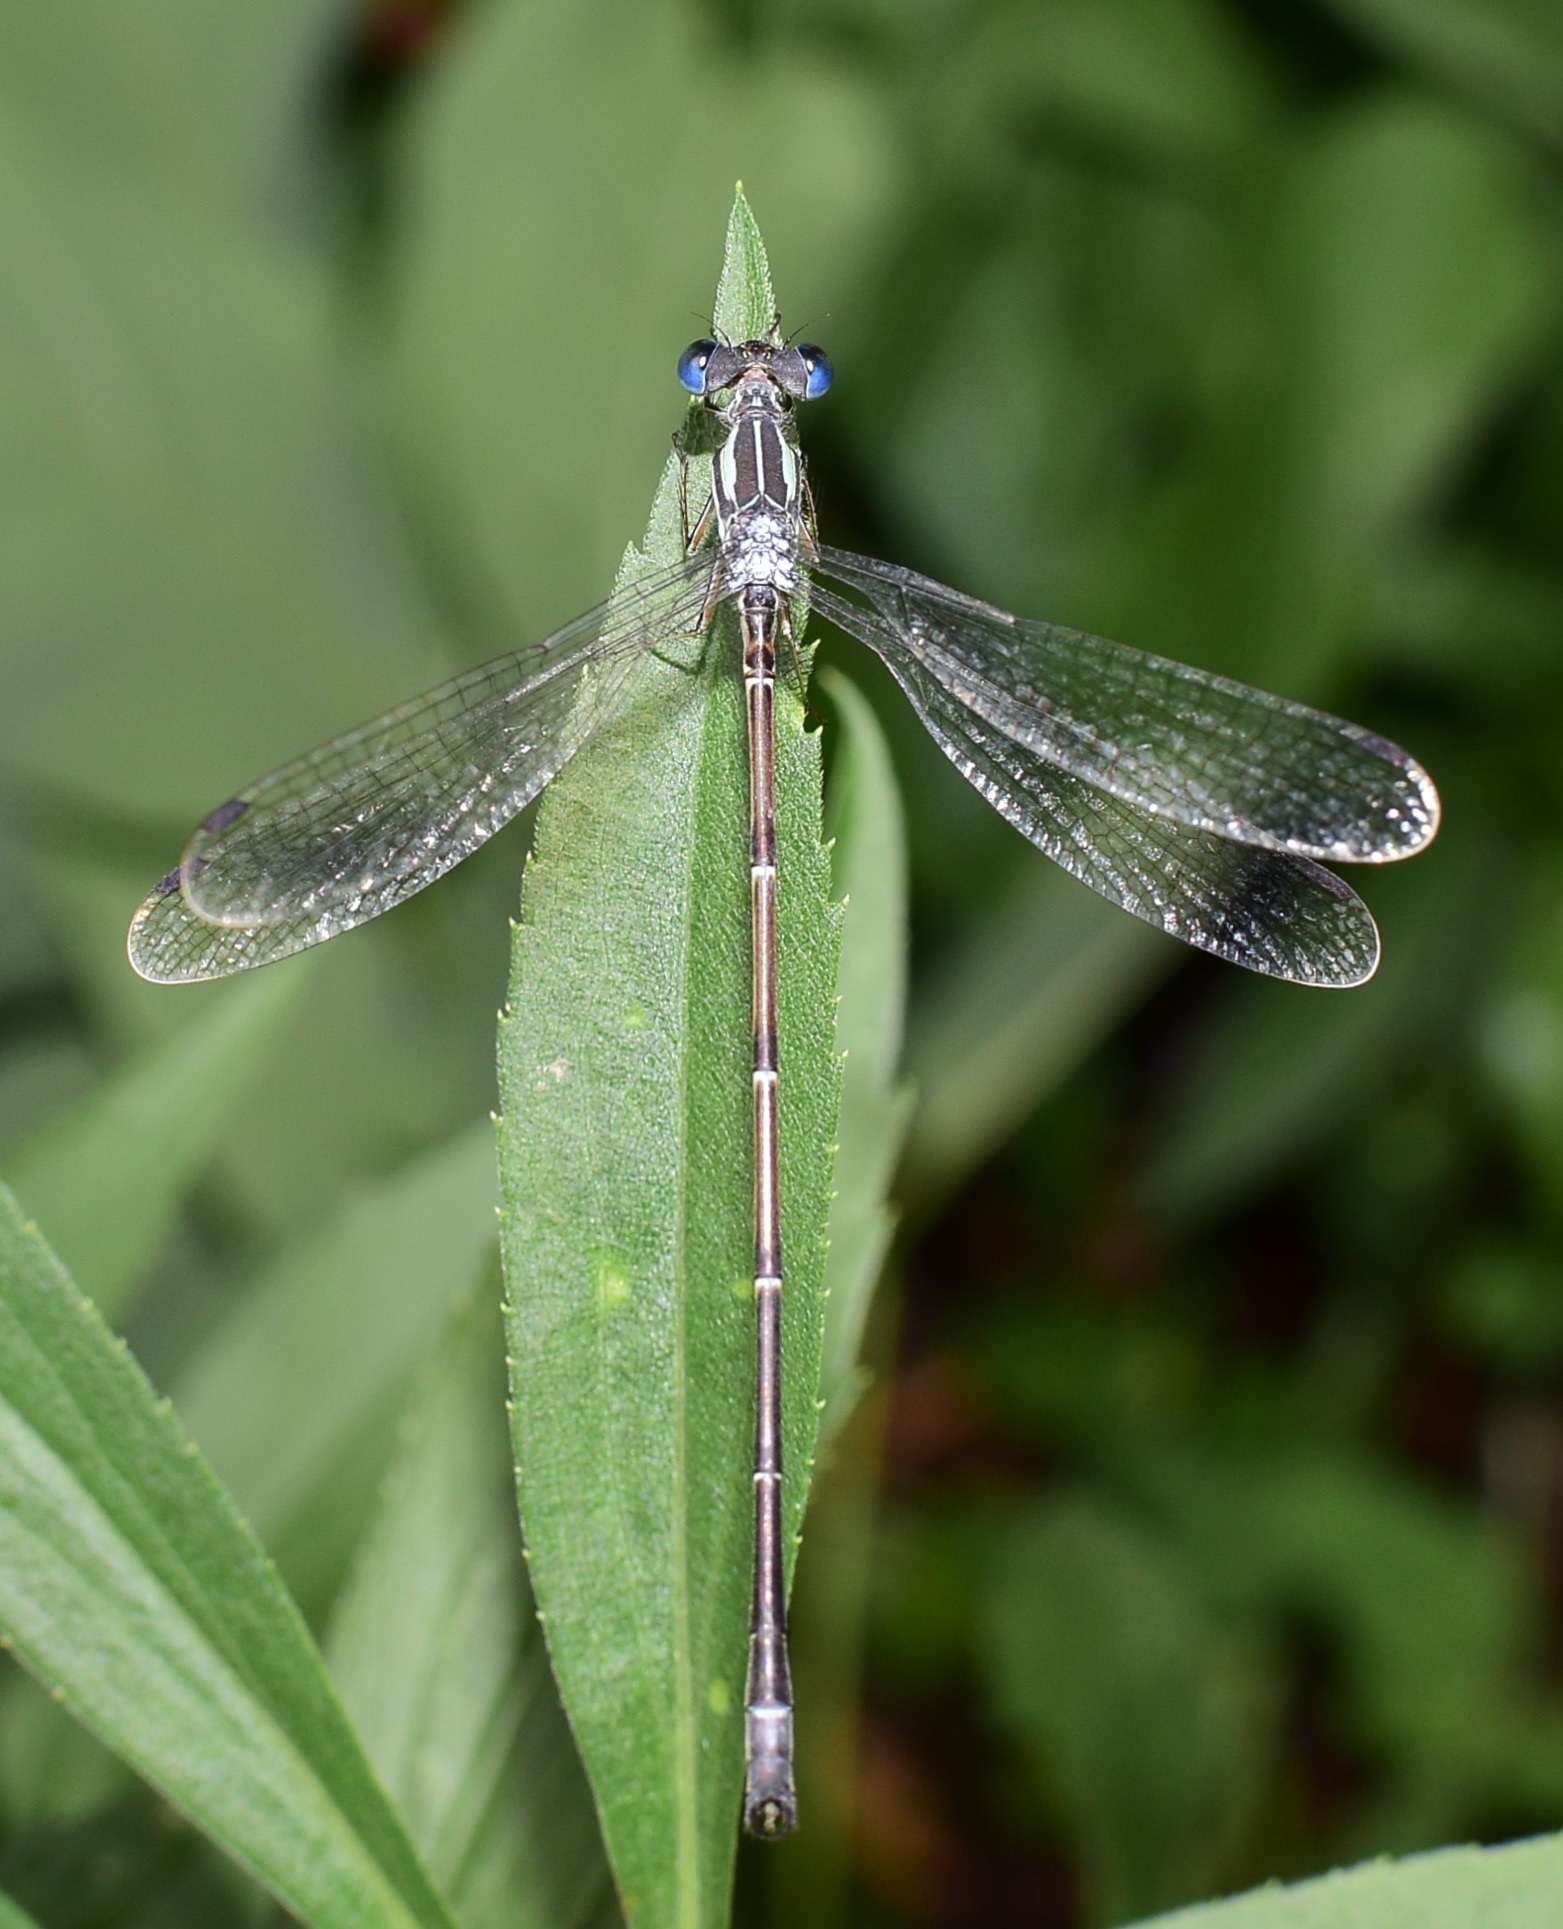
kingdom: Animalia
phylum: Arthropoda
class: Insecta
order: Odonata
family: Lestidae
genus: Lestes
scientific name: Lestes rectangularis
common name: Slender spreadwing
